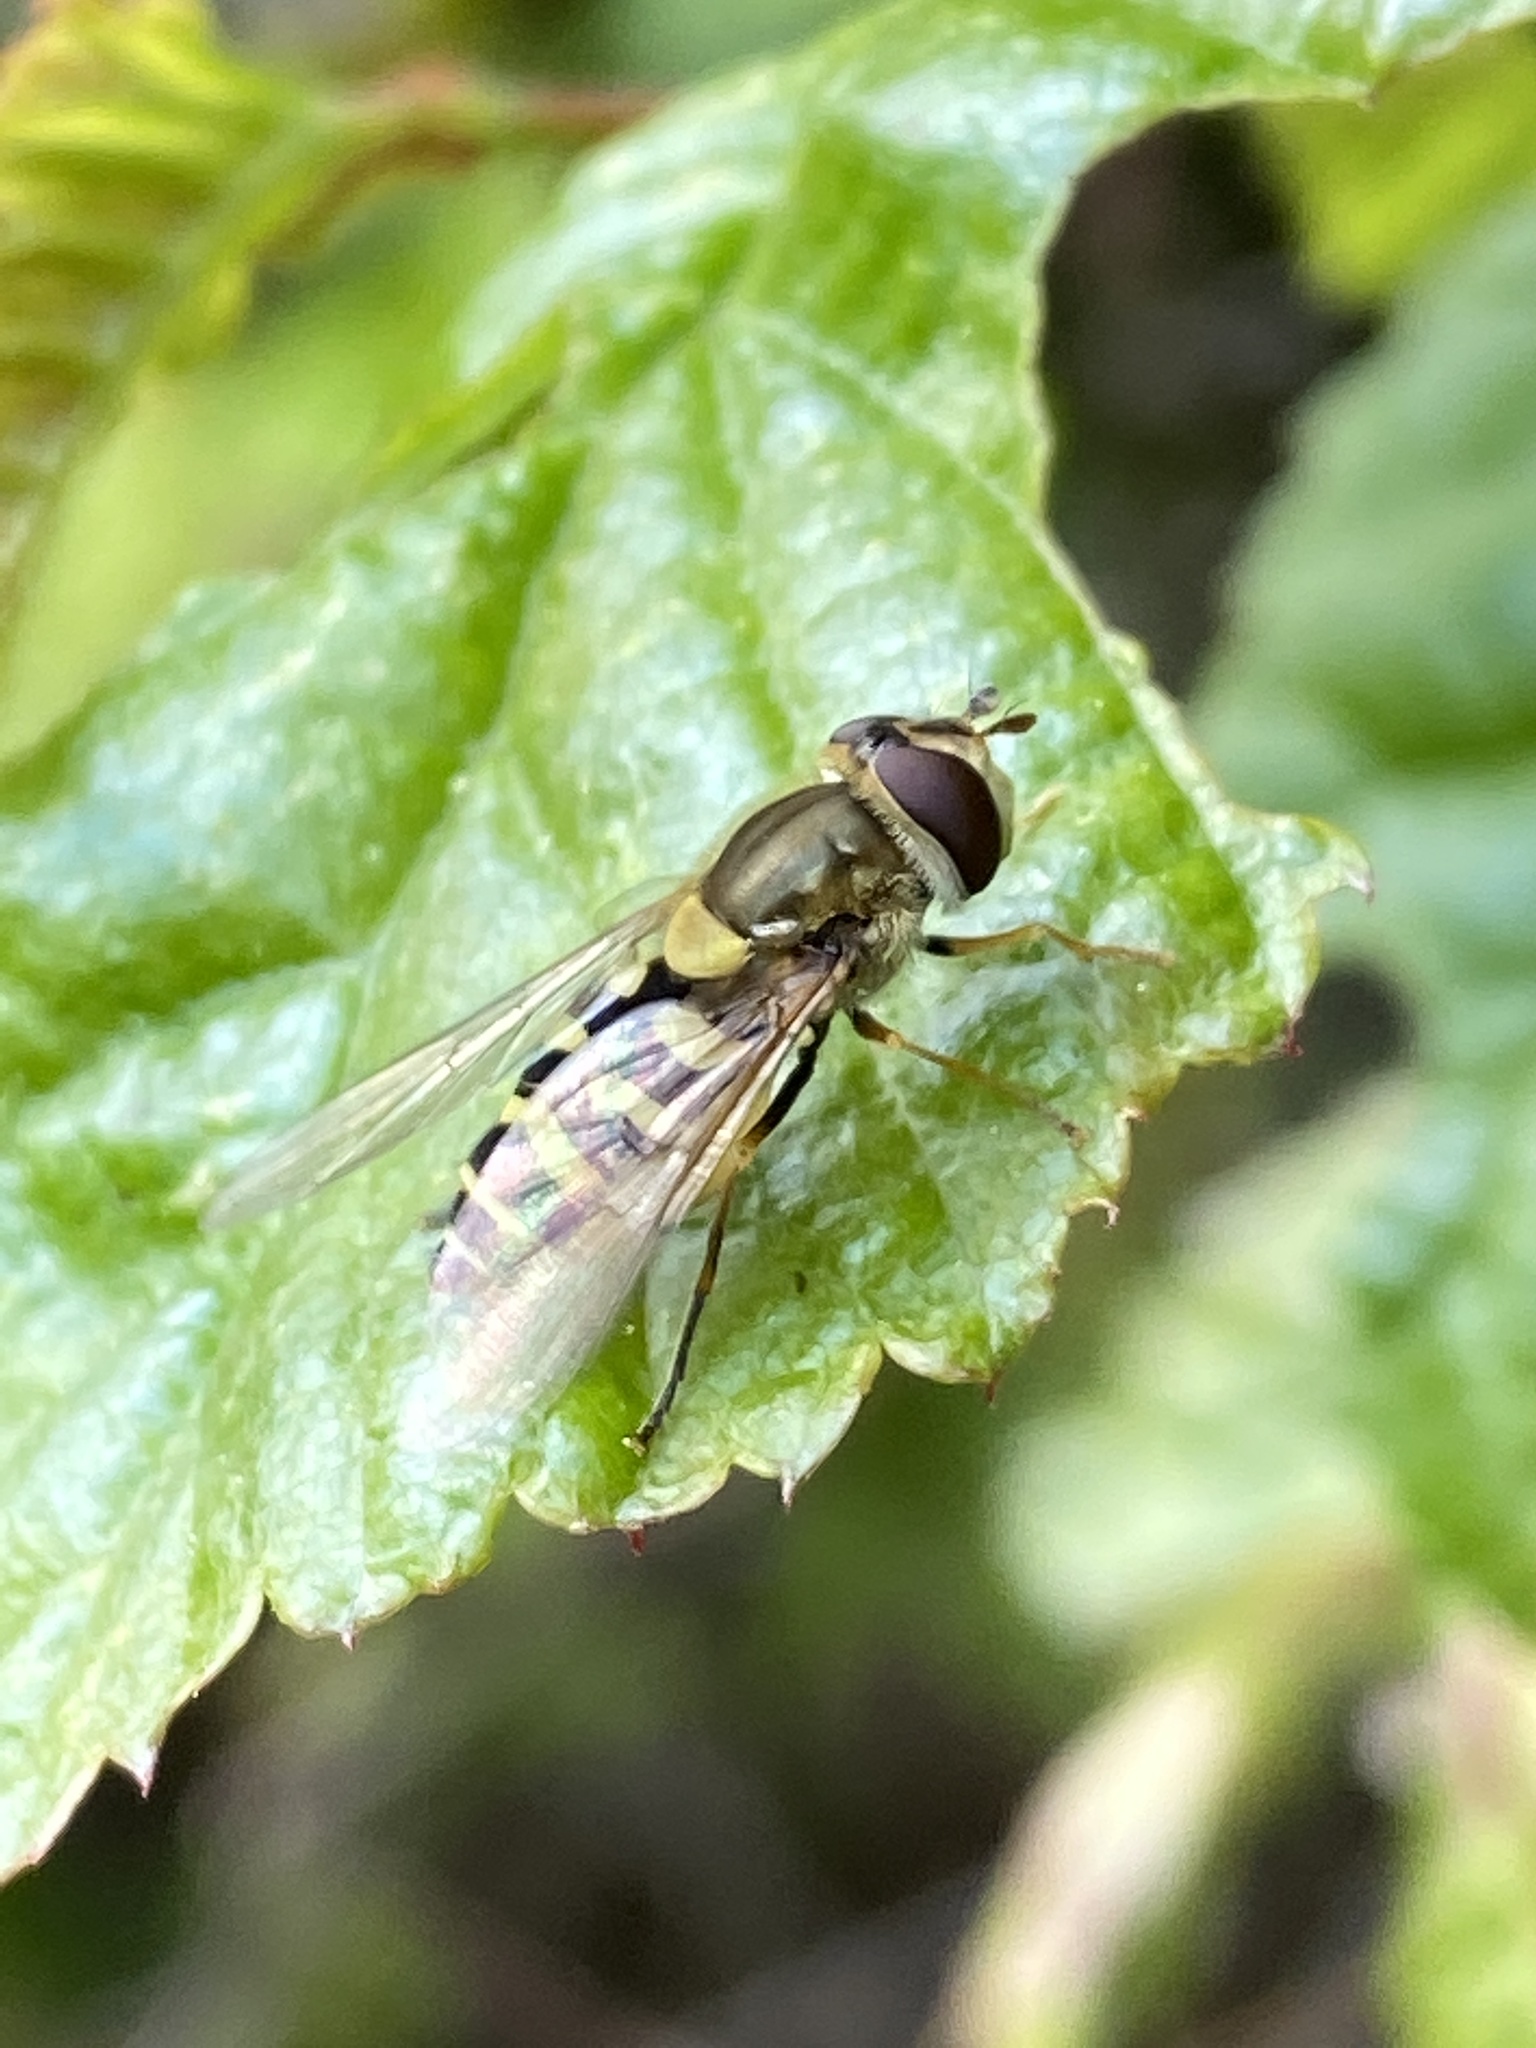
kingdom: Animalia
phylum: Arthropoda
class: Insecta
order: Diptera
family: Syrphidae
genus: Syrphus
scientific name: Syrphus
